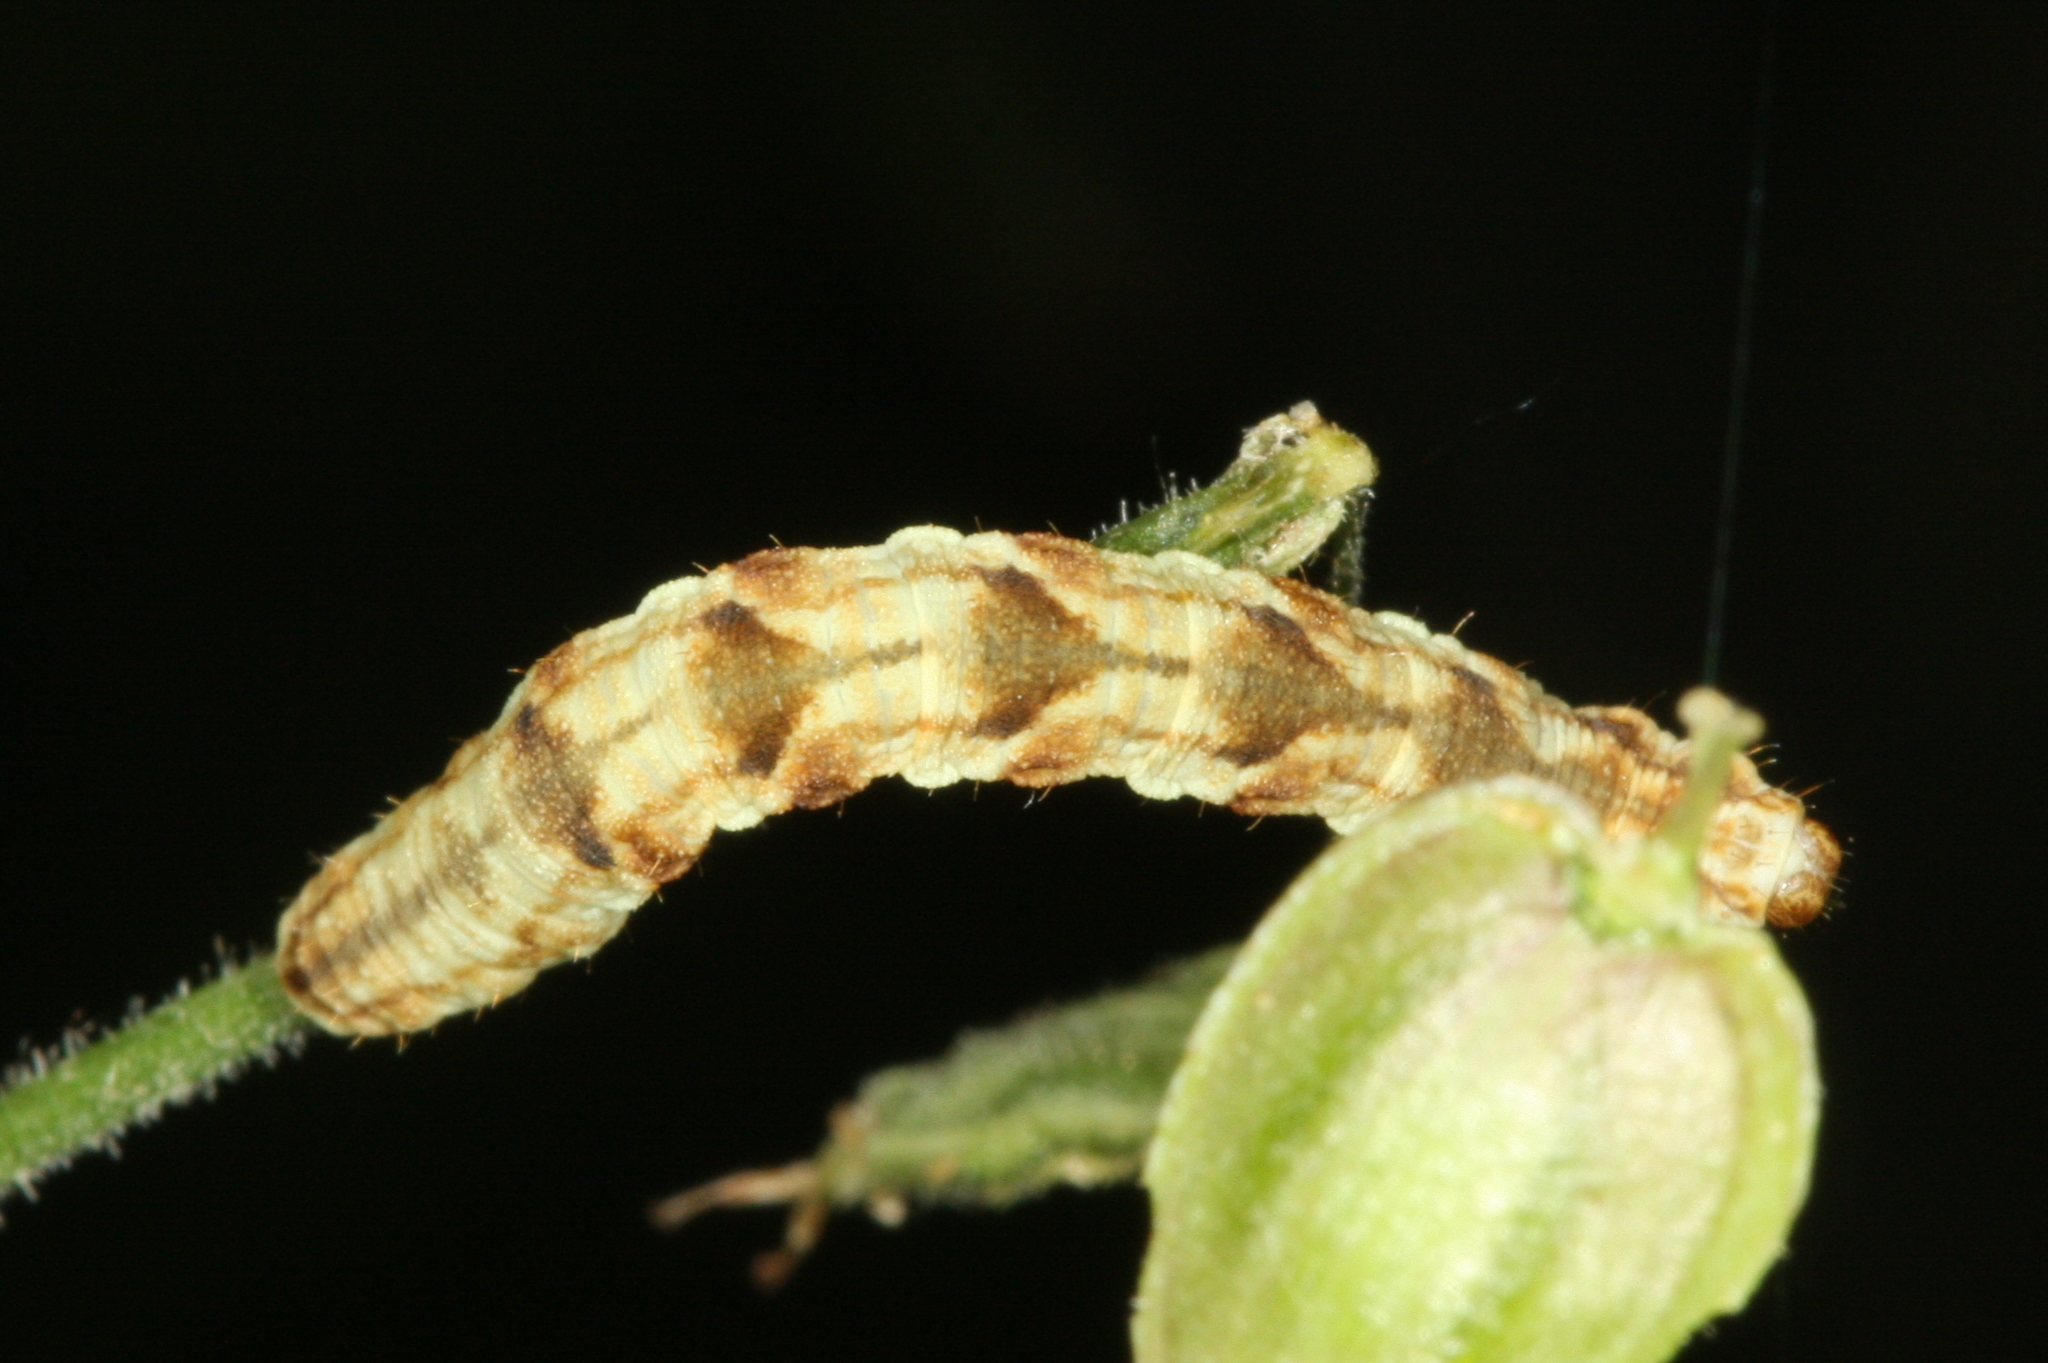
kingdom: Animalia
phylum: Arthropoda
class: Insecta
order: Lepidoptera
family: Geometridae
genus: Eupithecia
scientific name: Eupithecia tripunctaria
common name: White-spotted pug
